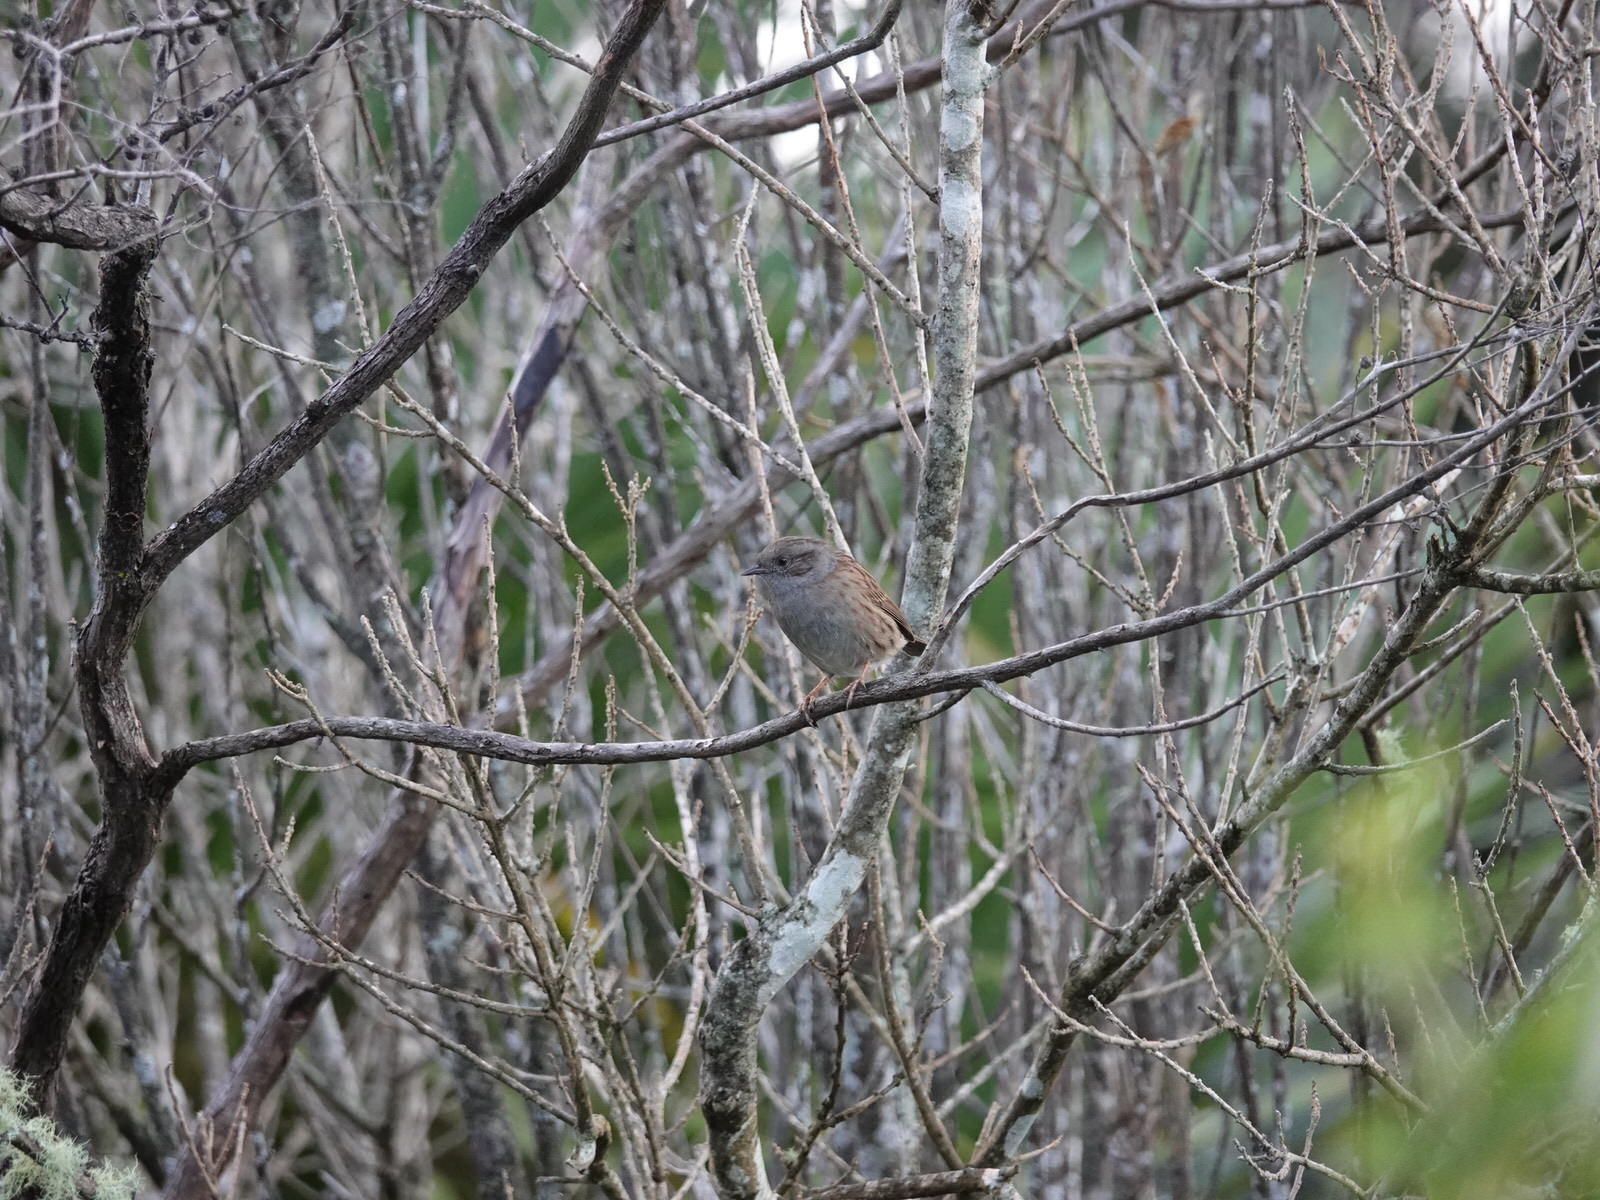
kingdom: Animalia
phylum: Chordata
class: Aves
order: Passeriformes
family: Prunellidae
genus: Prunella
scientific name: Prunella modularis
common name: Dunnock
